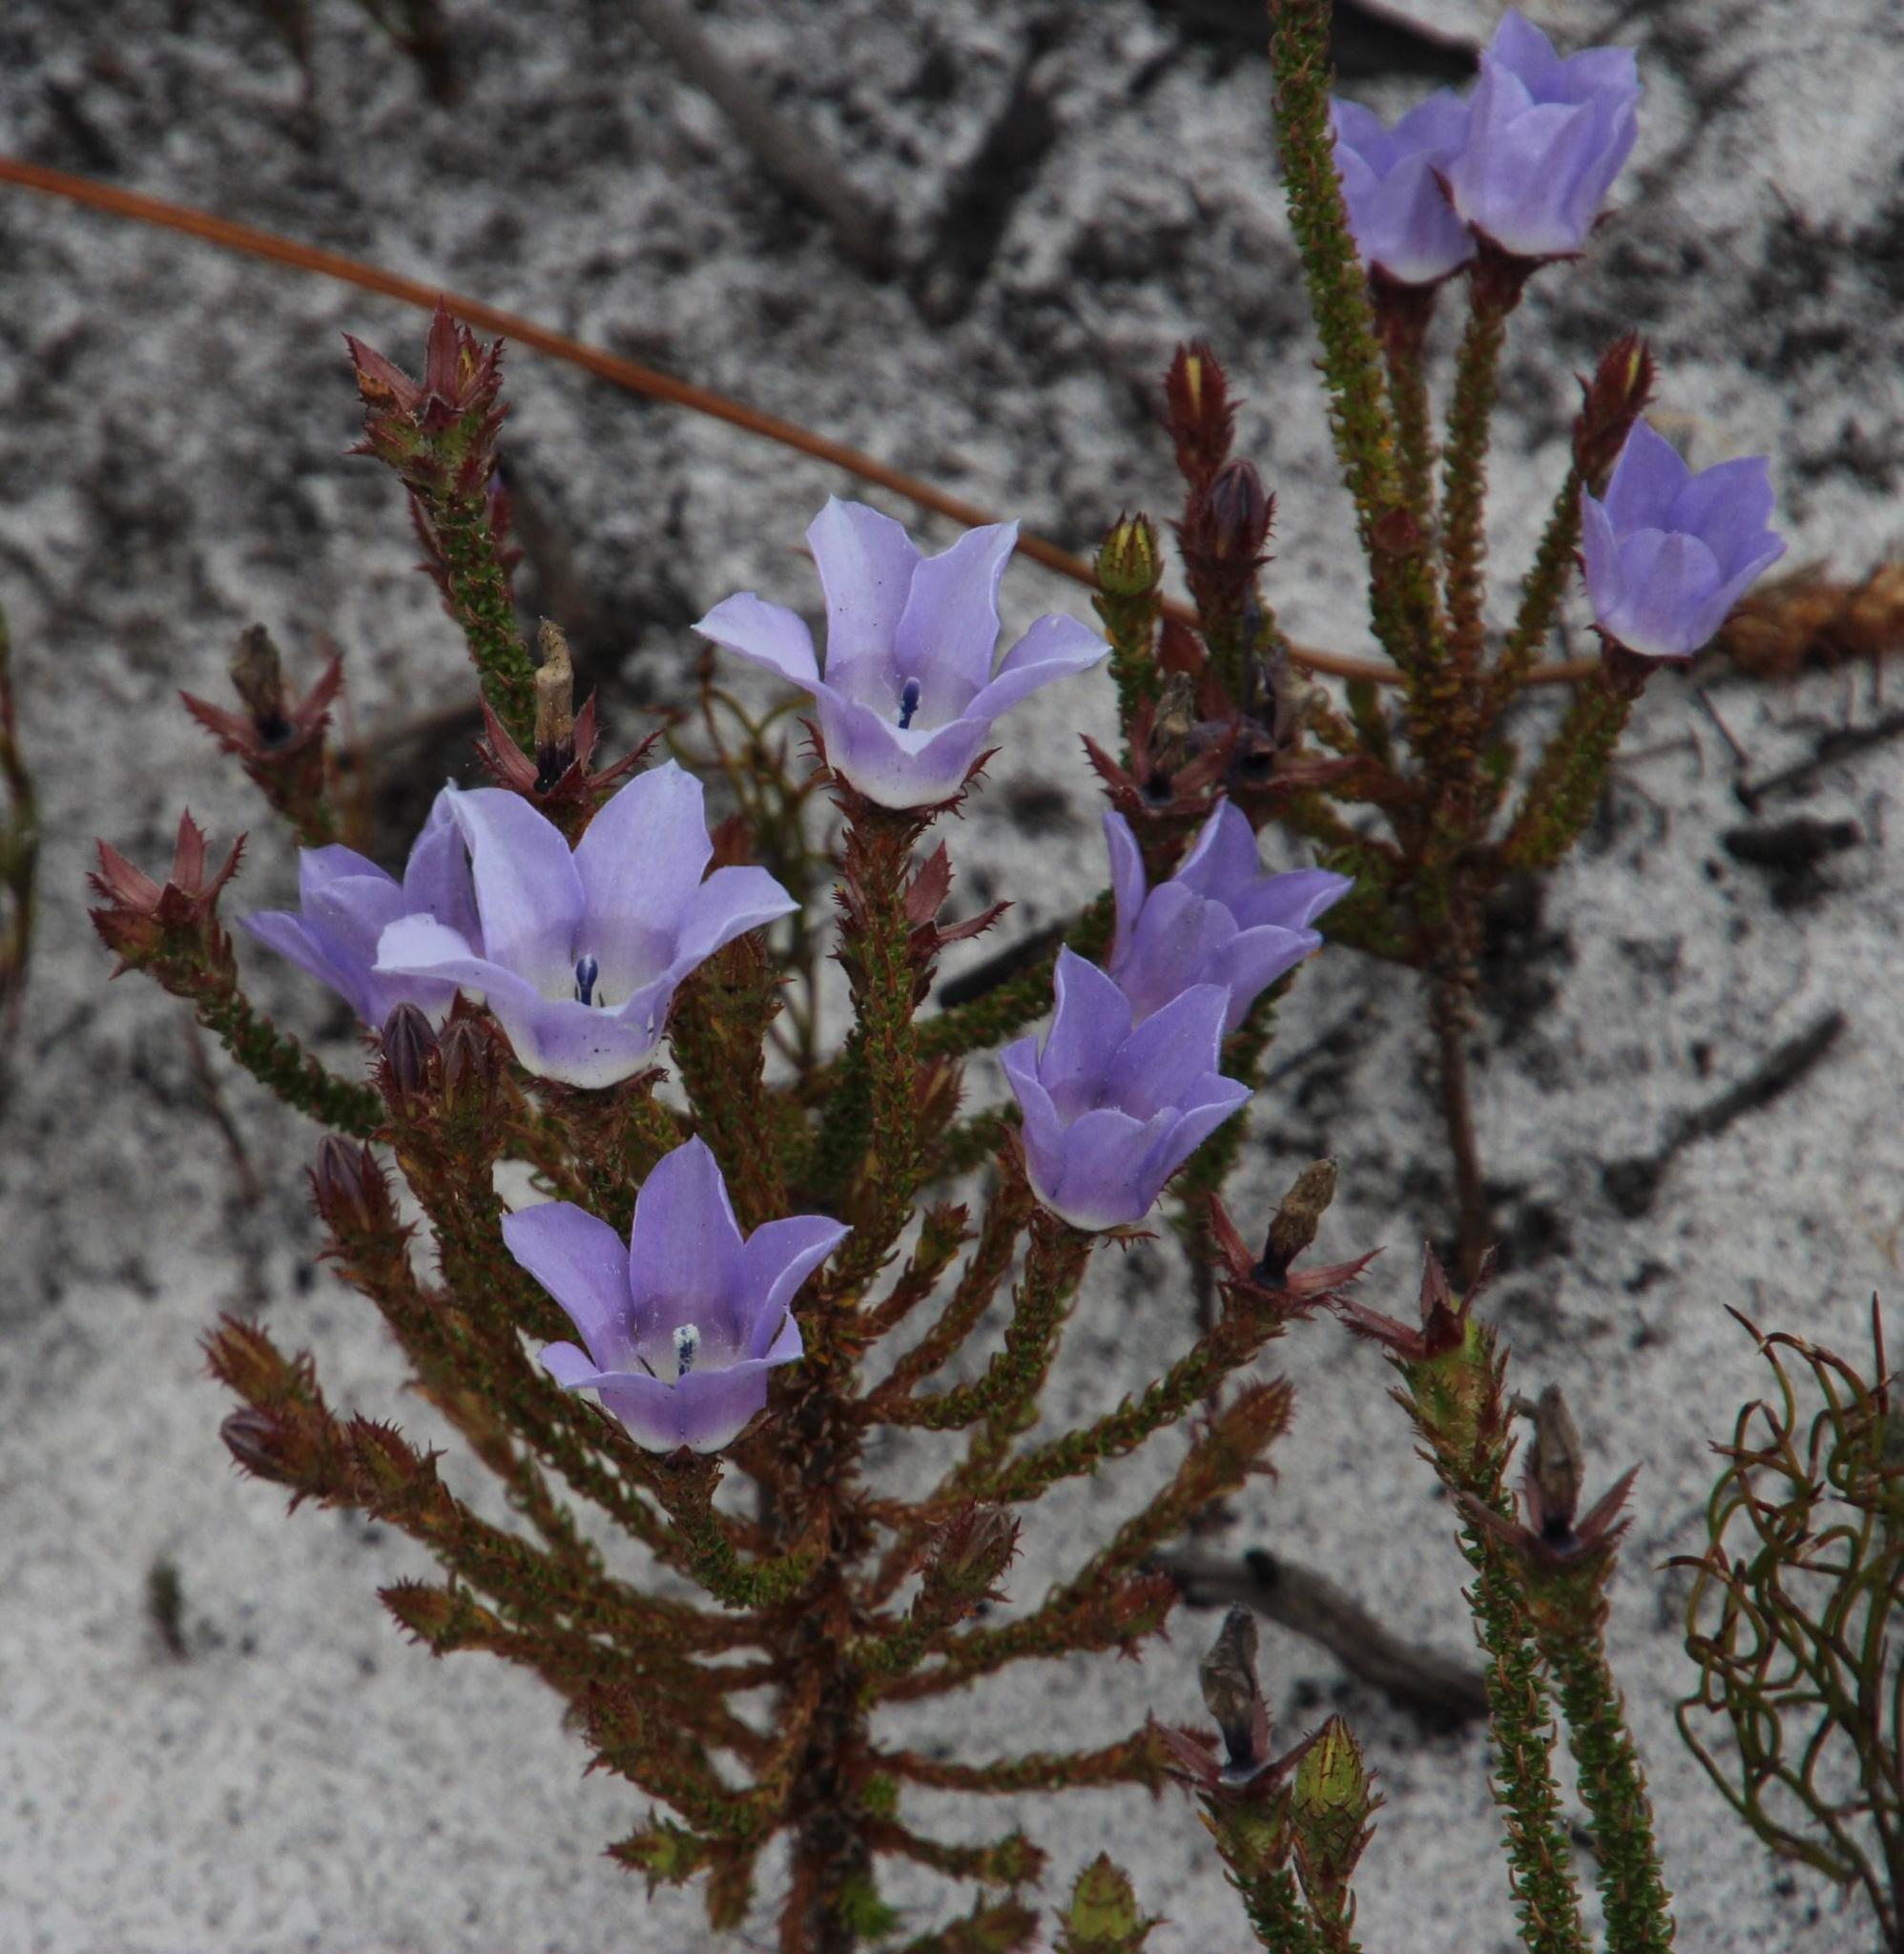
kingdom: Plantae
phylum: Tracheophyta
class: Magnoliopsida
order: Asterales
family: Campanulaceae
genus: Roella
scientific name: Roella ciliata
